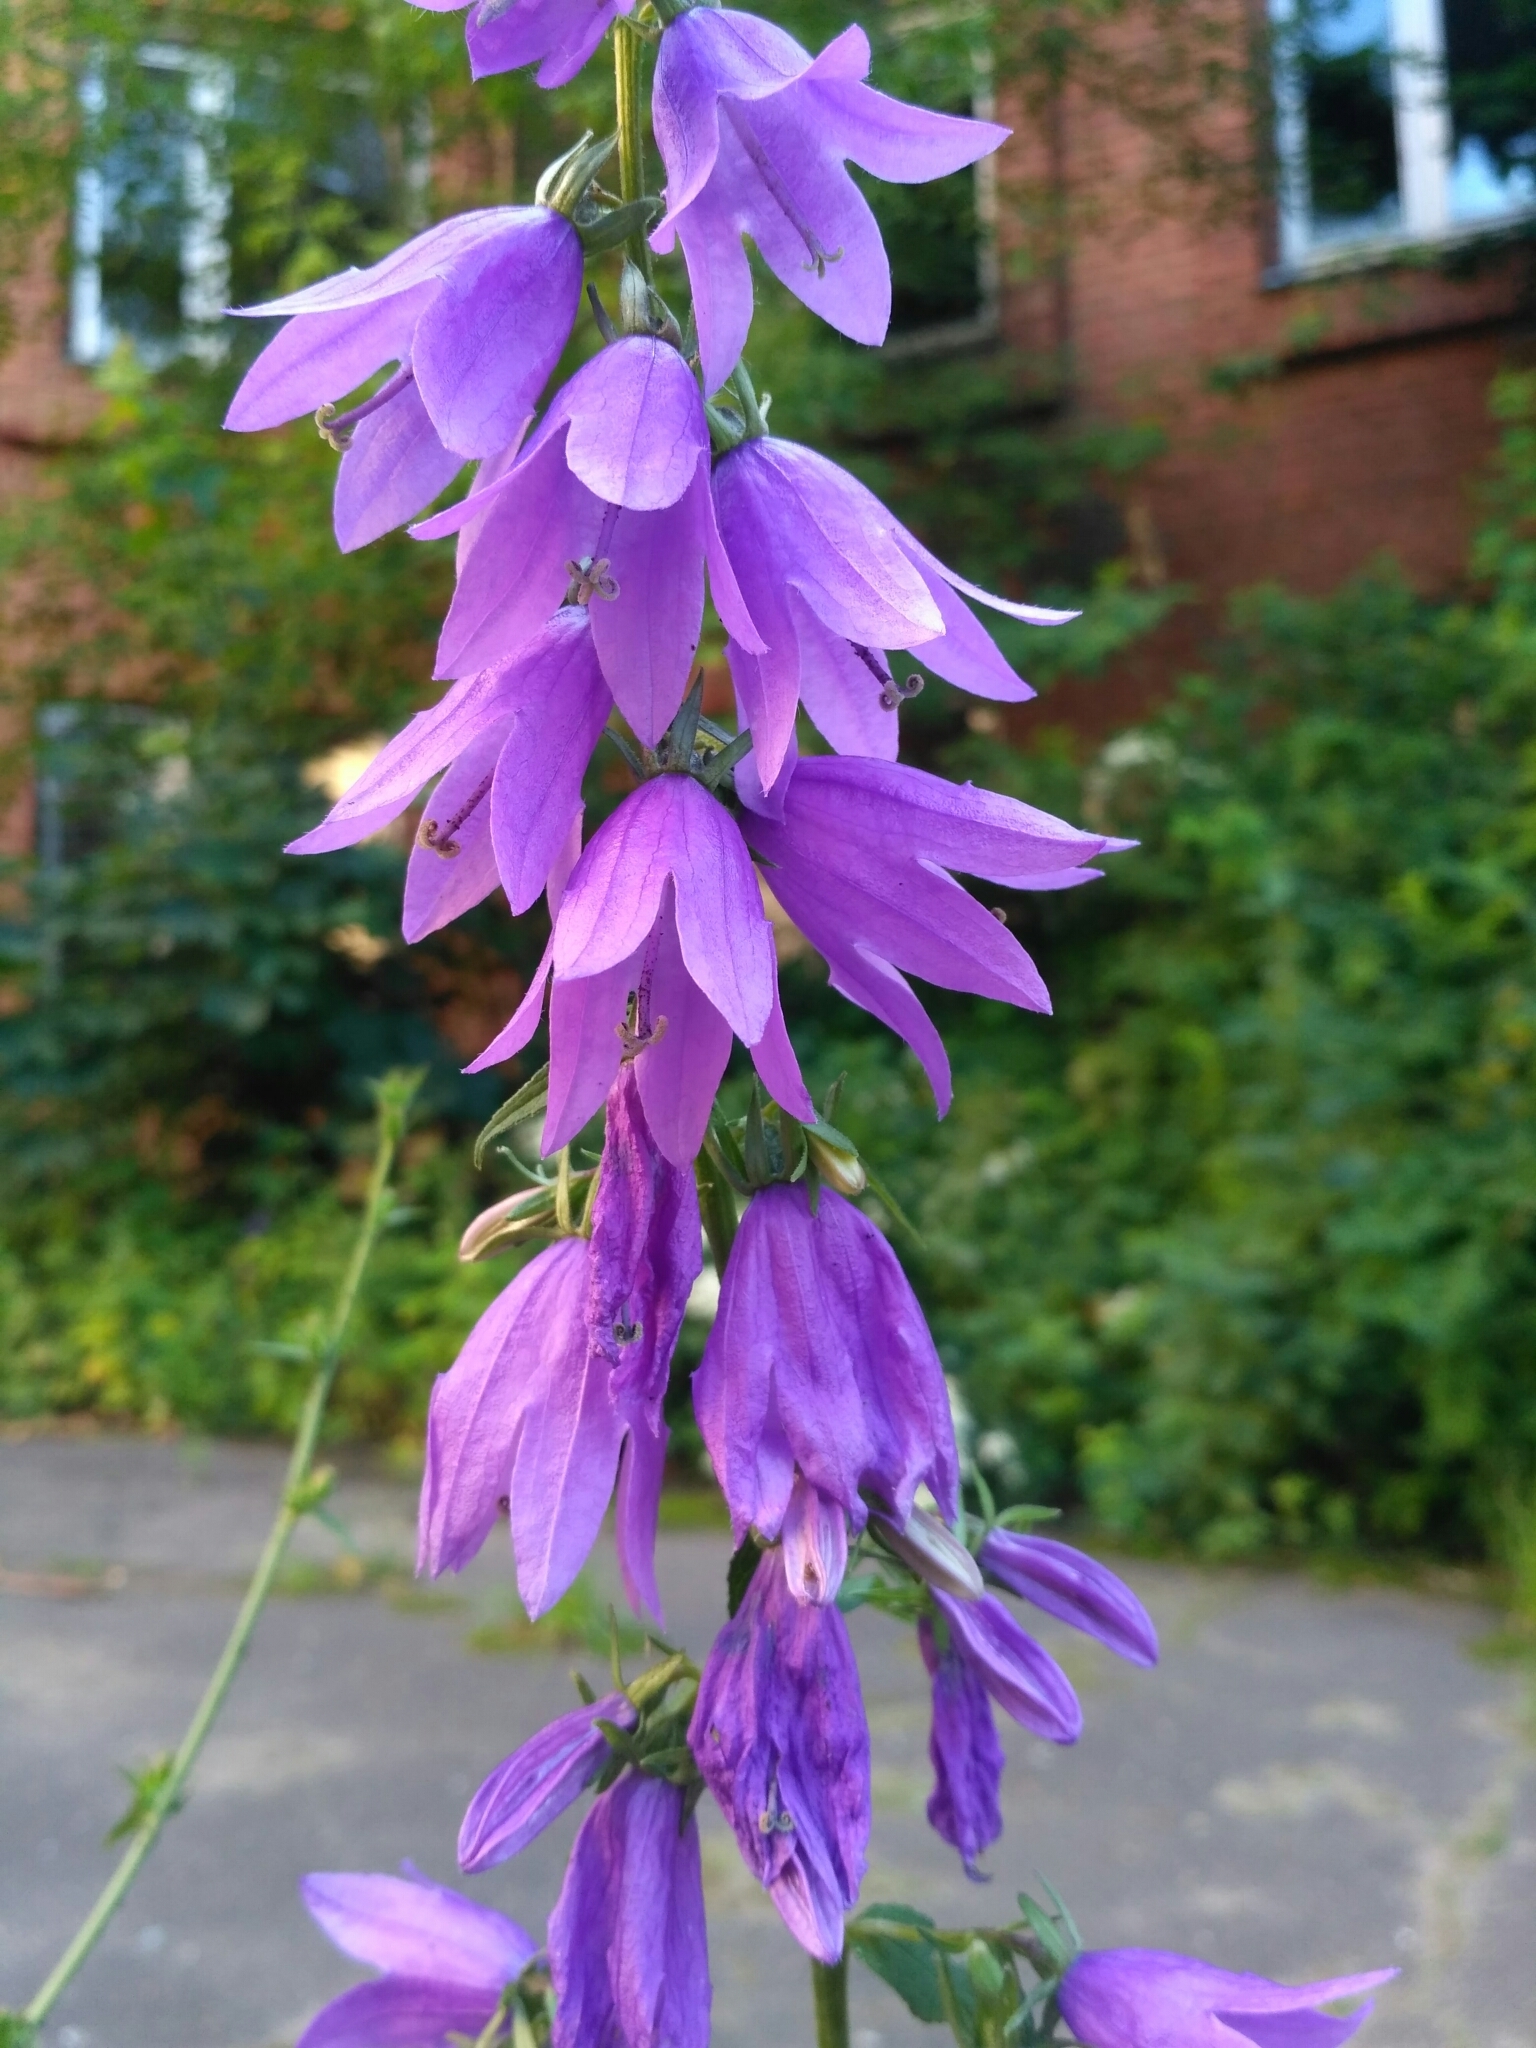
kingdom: Plantae
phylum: Tracheophyta
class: Magnoliopsida
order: Asterales
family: Campanulaceae
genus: Campanula
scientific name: Campanula rapunculoides
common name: Creeping bellflower
